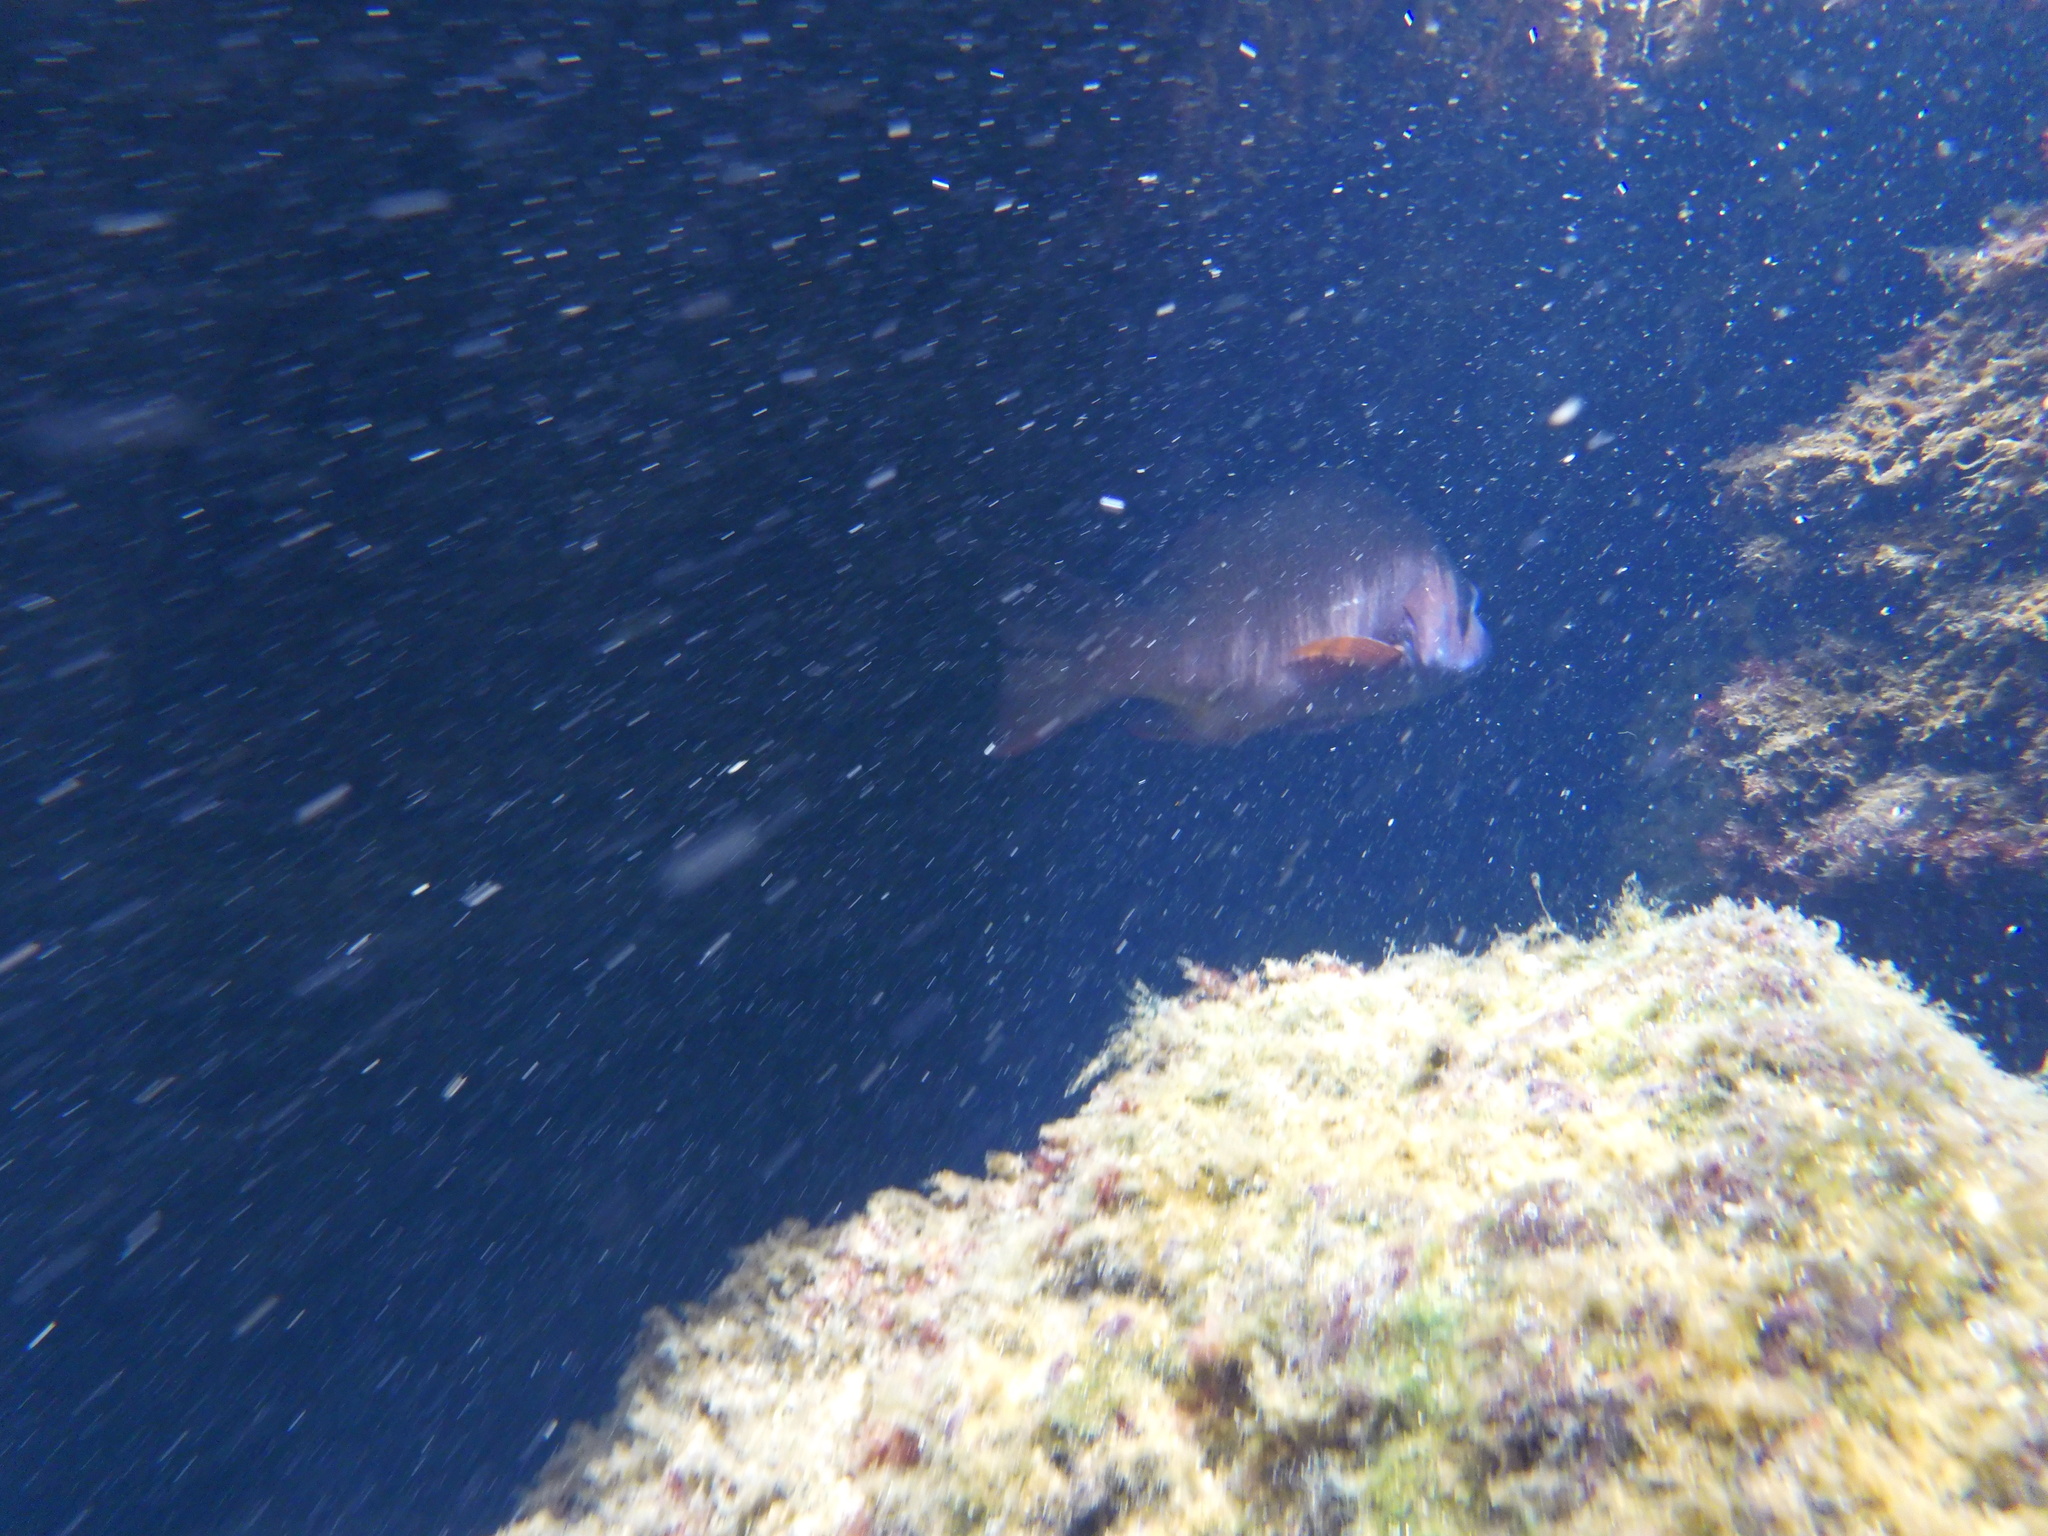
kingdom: Animalia
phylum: Chordata
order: Perciformes
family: Lutjanidae
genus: Lutjanus
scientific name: Lutjanus colorado
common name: Colorado snapper
